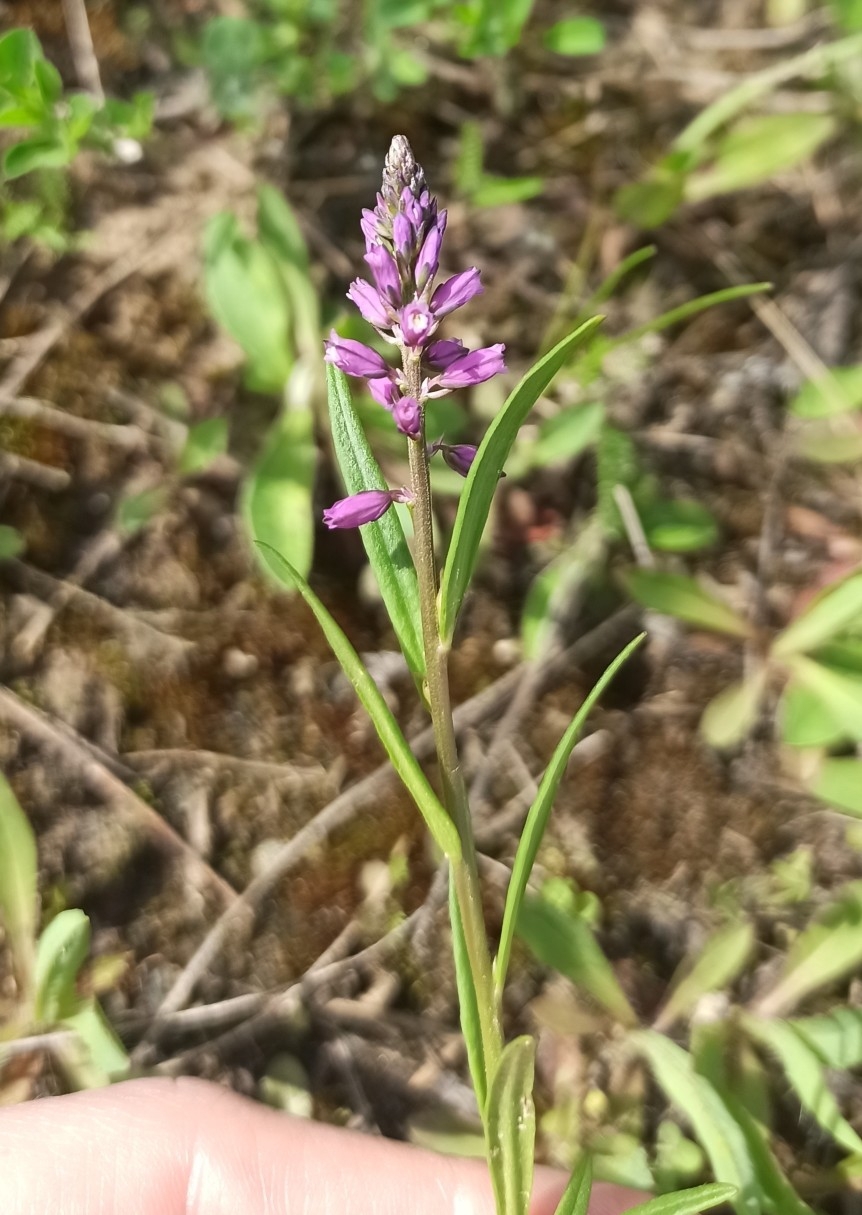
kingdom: Plantae
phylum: Tracheophyta
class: Magnoliopsida
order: Fabales
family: Polygalaceae
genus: Polygala
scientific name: Polygala comosa
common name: Tufted milkwort
